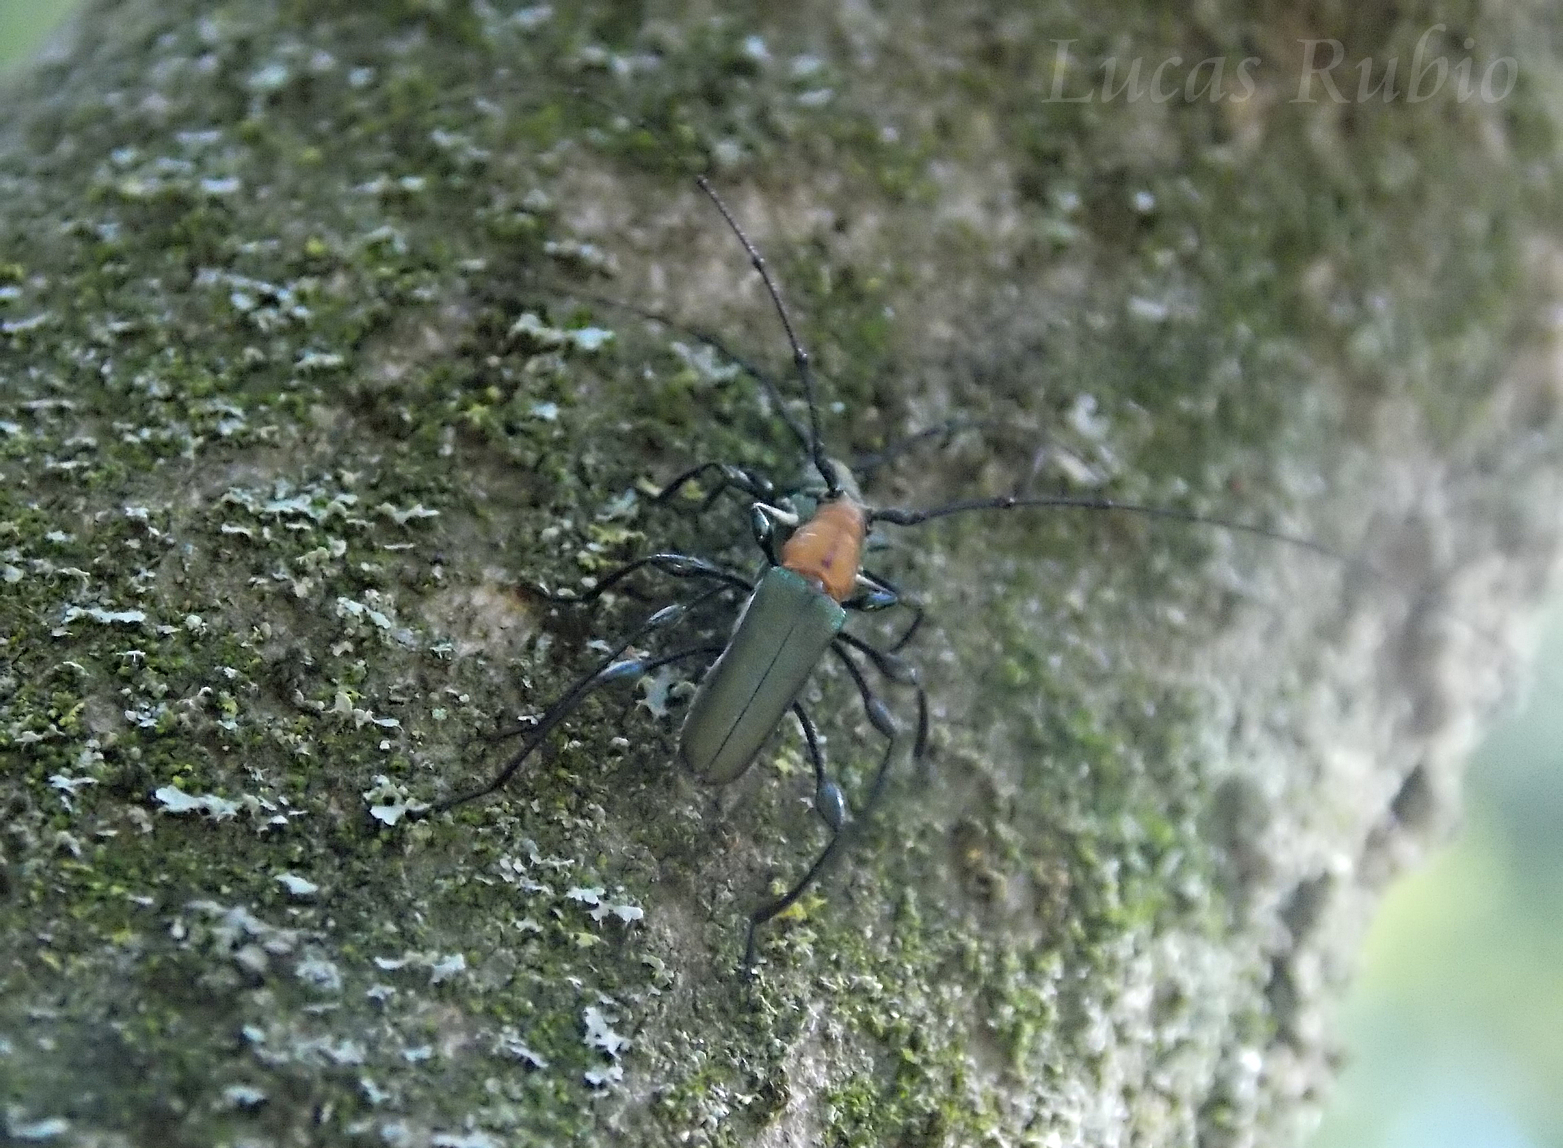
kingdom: Animalia
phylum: Arthropoda
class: Insecta
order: Coleoptera
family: Cerambycidae
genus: Ischionodonta
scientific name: Ischionodonta platensis
